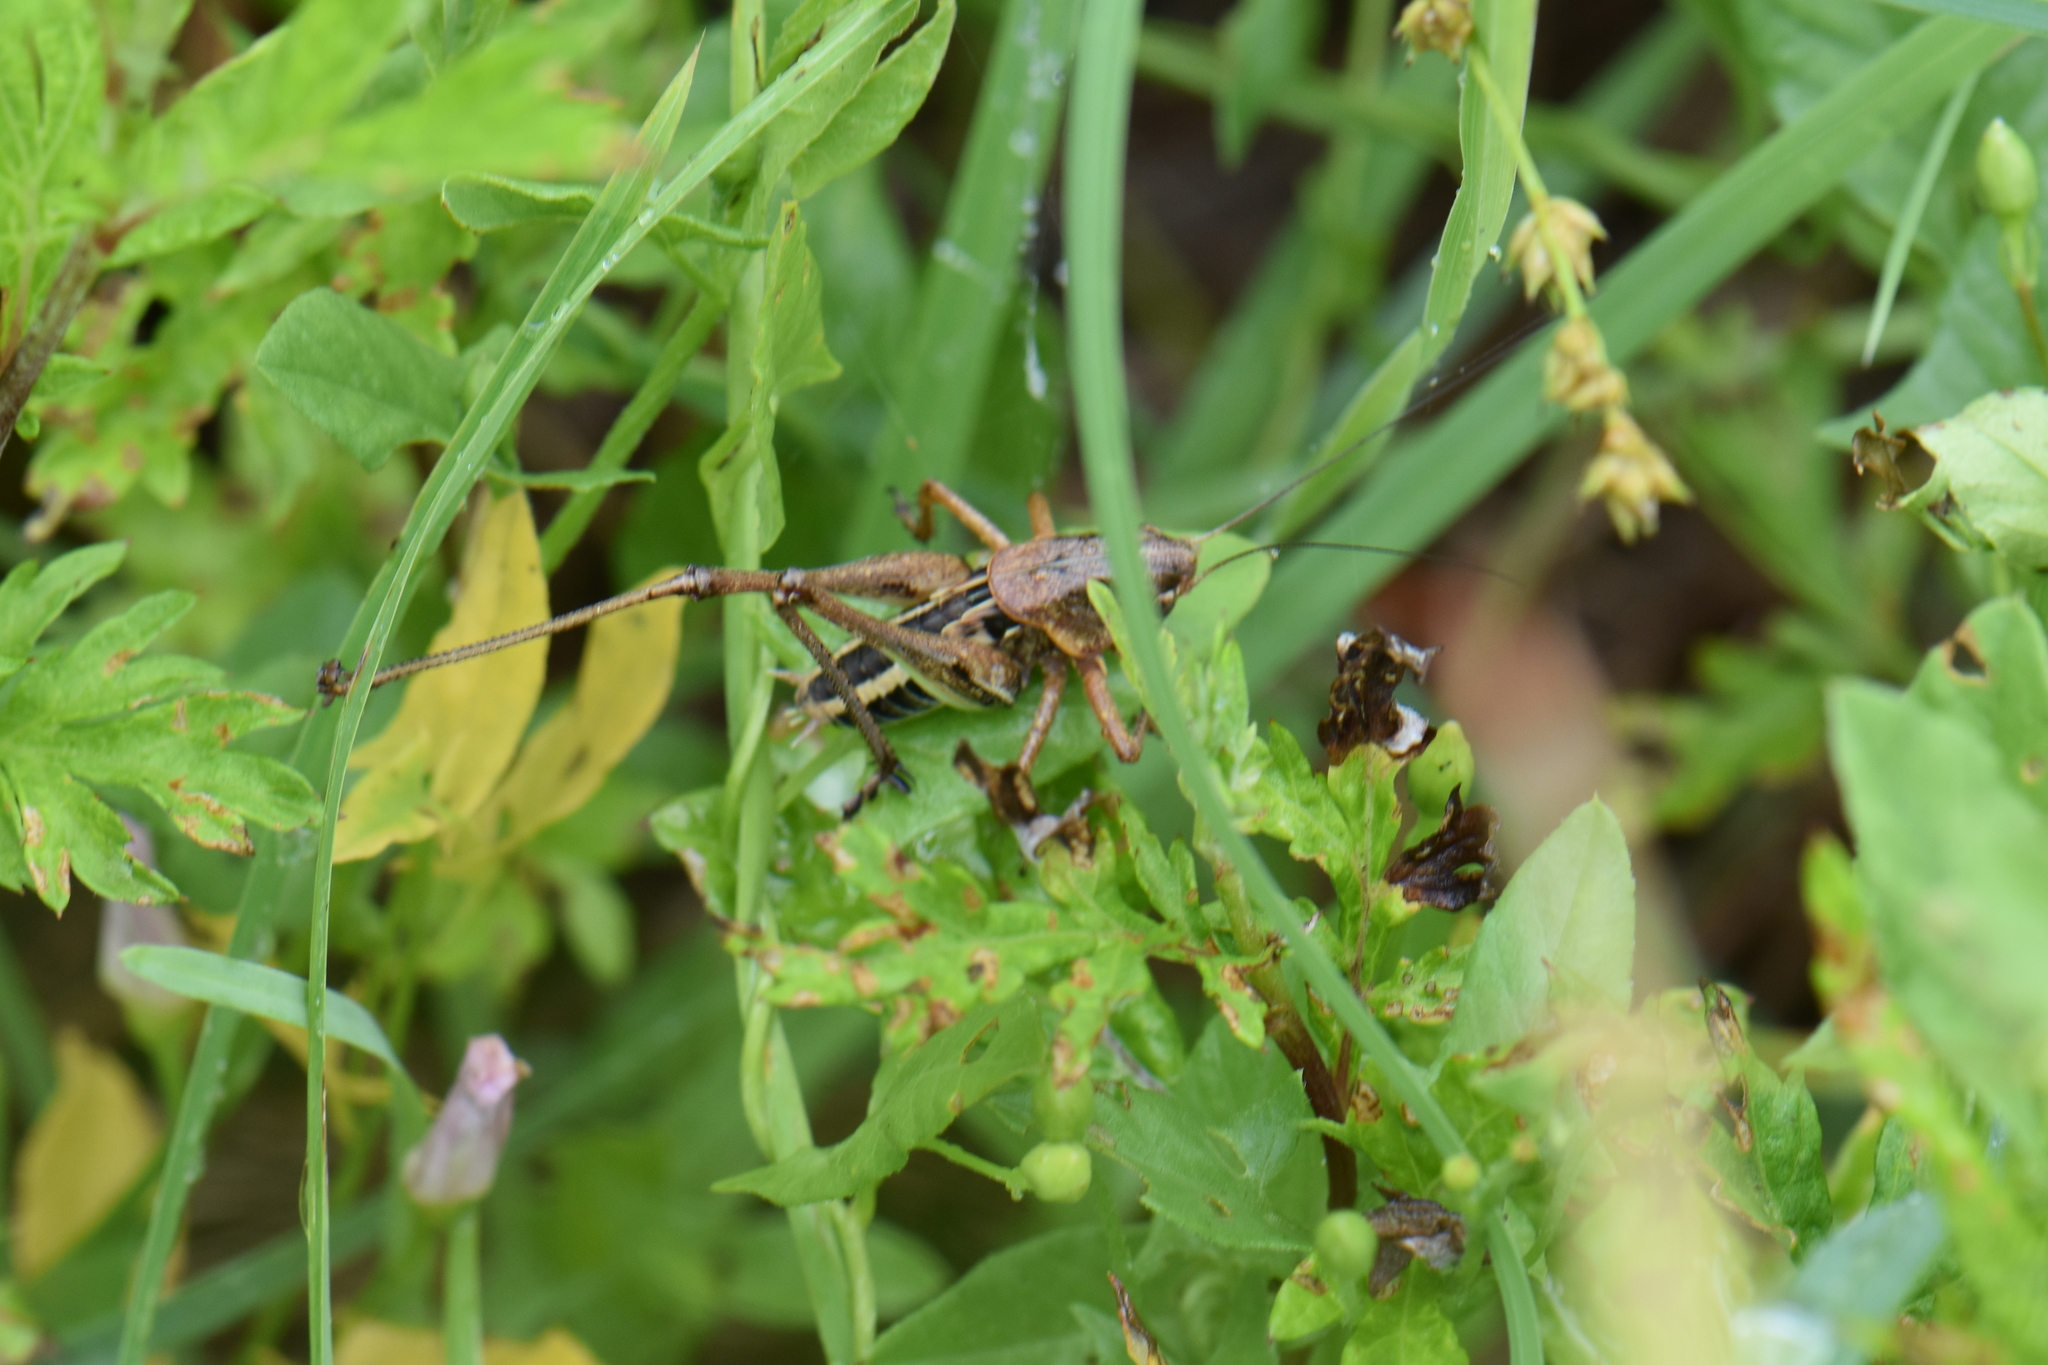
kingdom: Animalia
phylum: Arthropoda
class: Insecta
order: Orthoptera
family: Tettigoniidae
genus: Decticus
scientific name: Decticus albifrons
